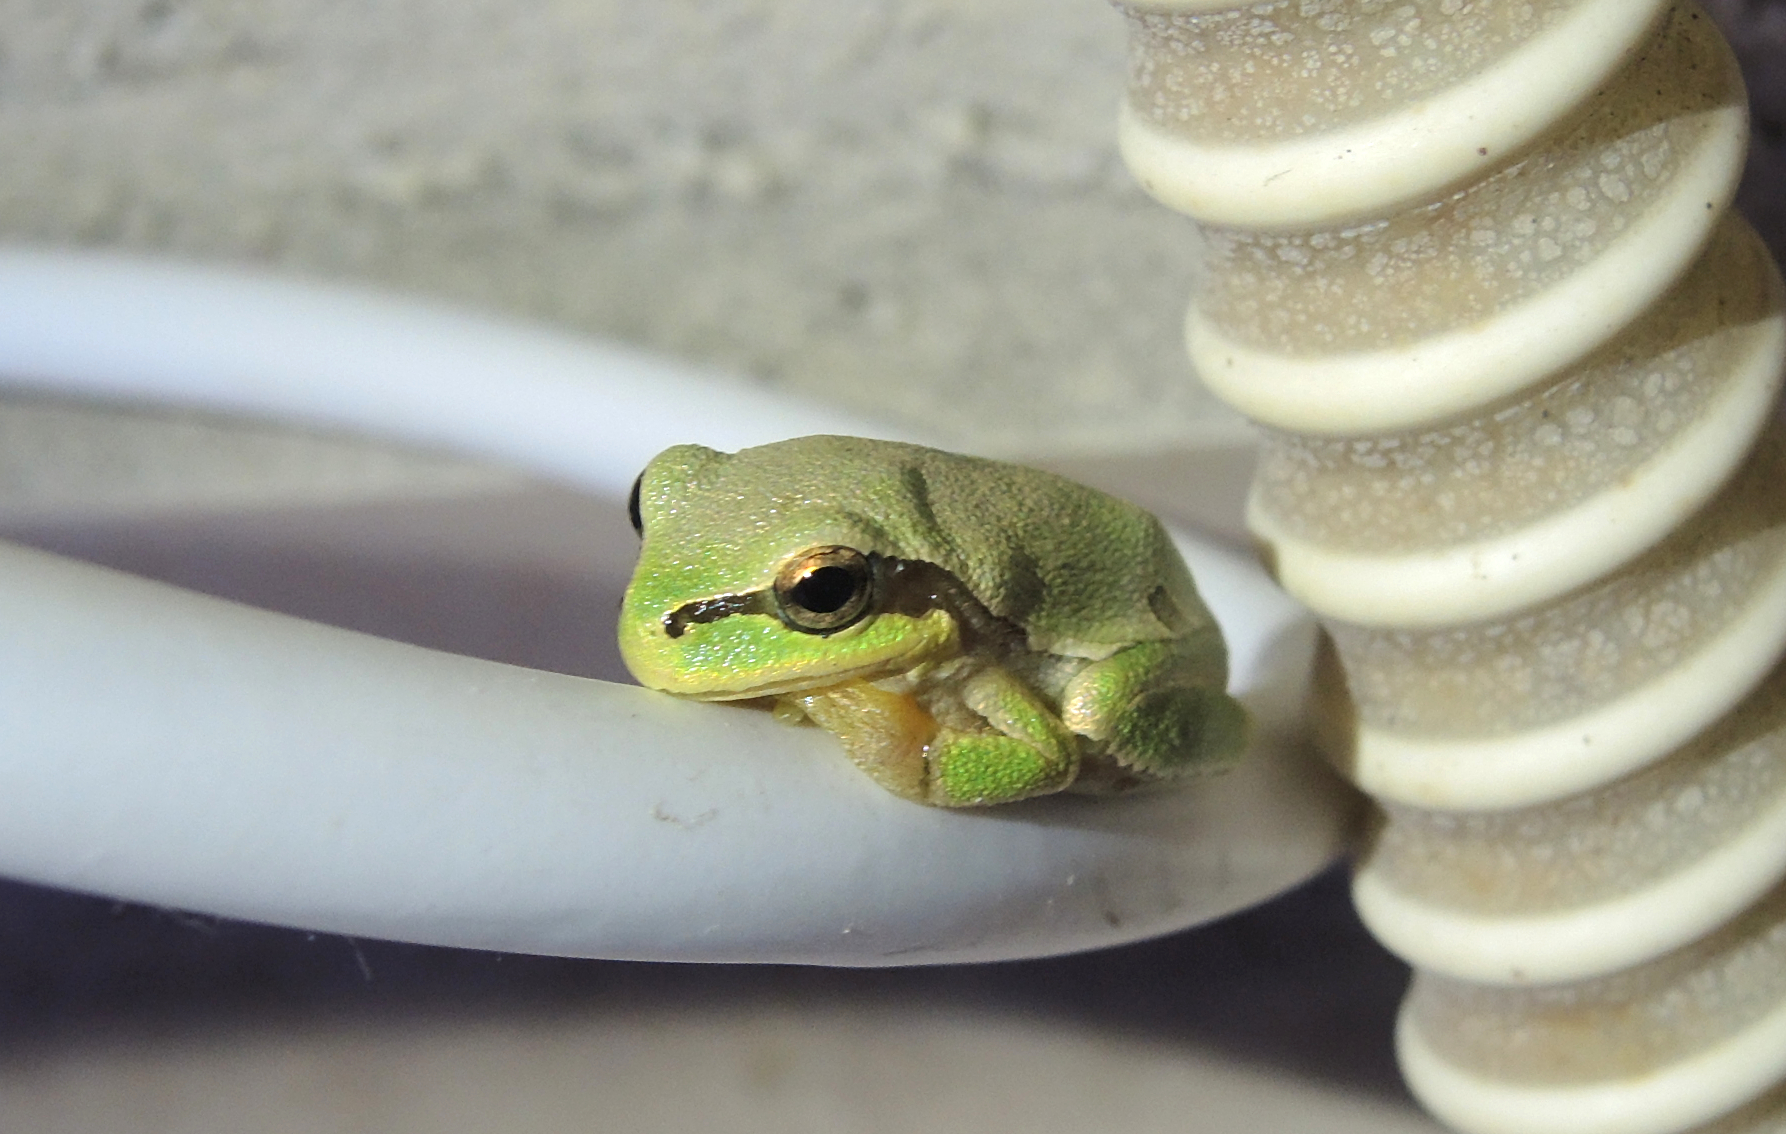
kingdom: Animalia
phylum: Chordata
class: Amphibia
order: Anura
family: Hylidae
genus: Hyla
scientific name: Hyla orientalis
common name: Caucasian treefrog
